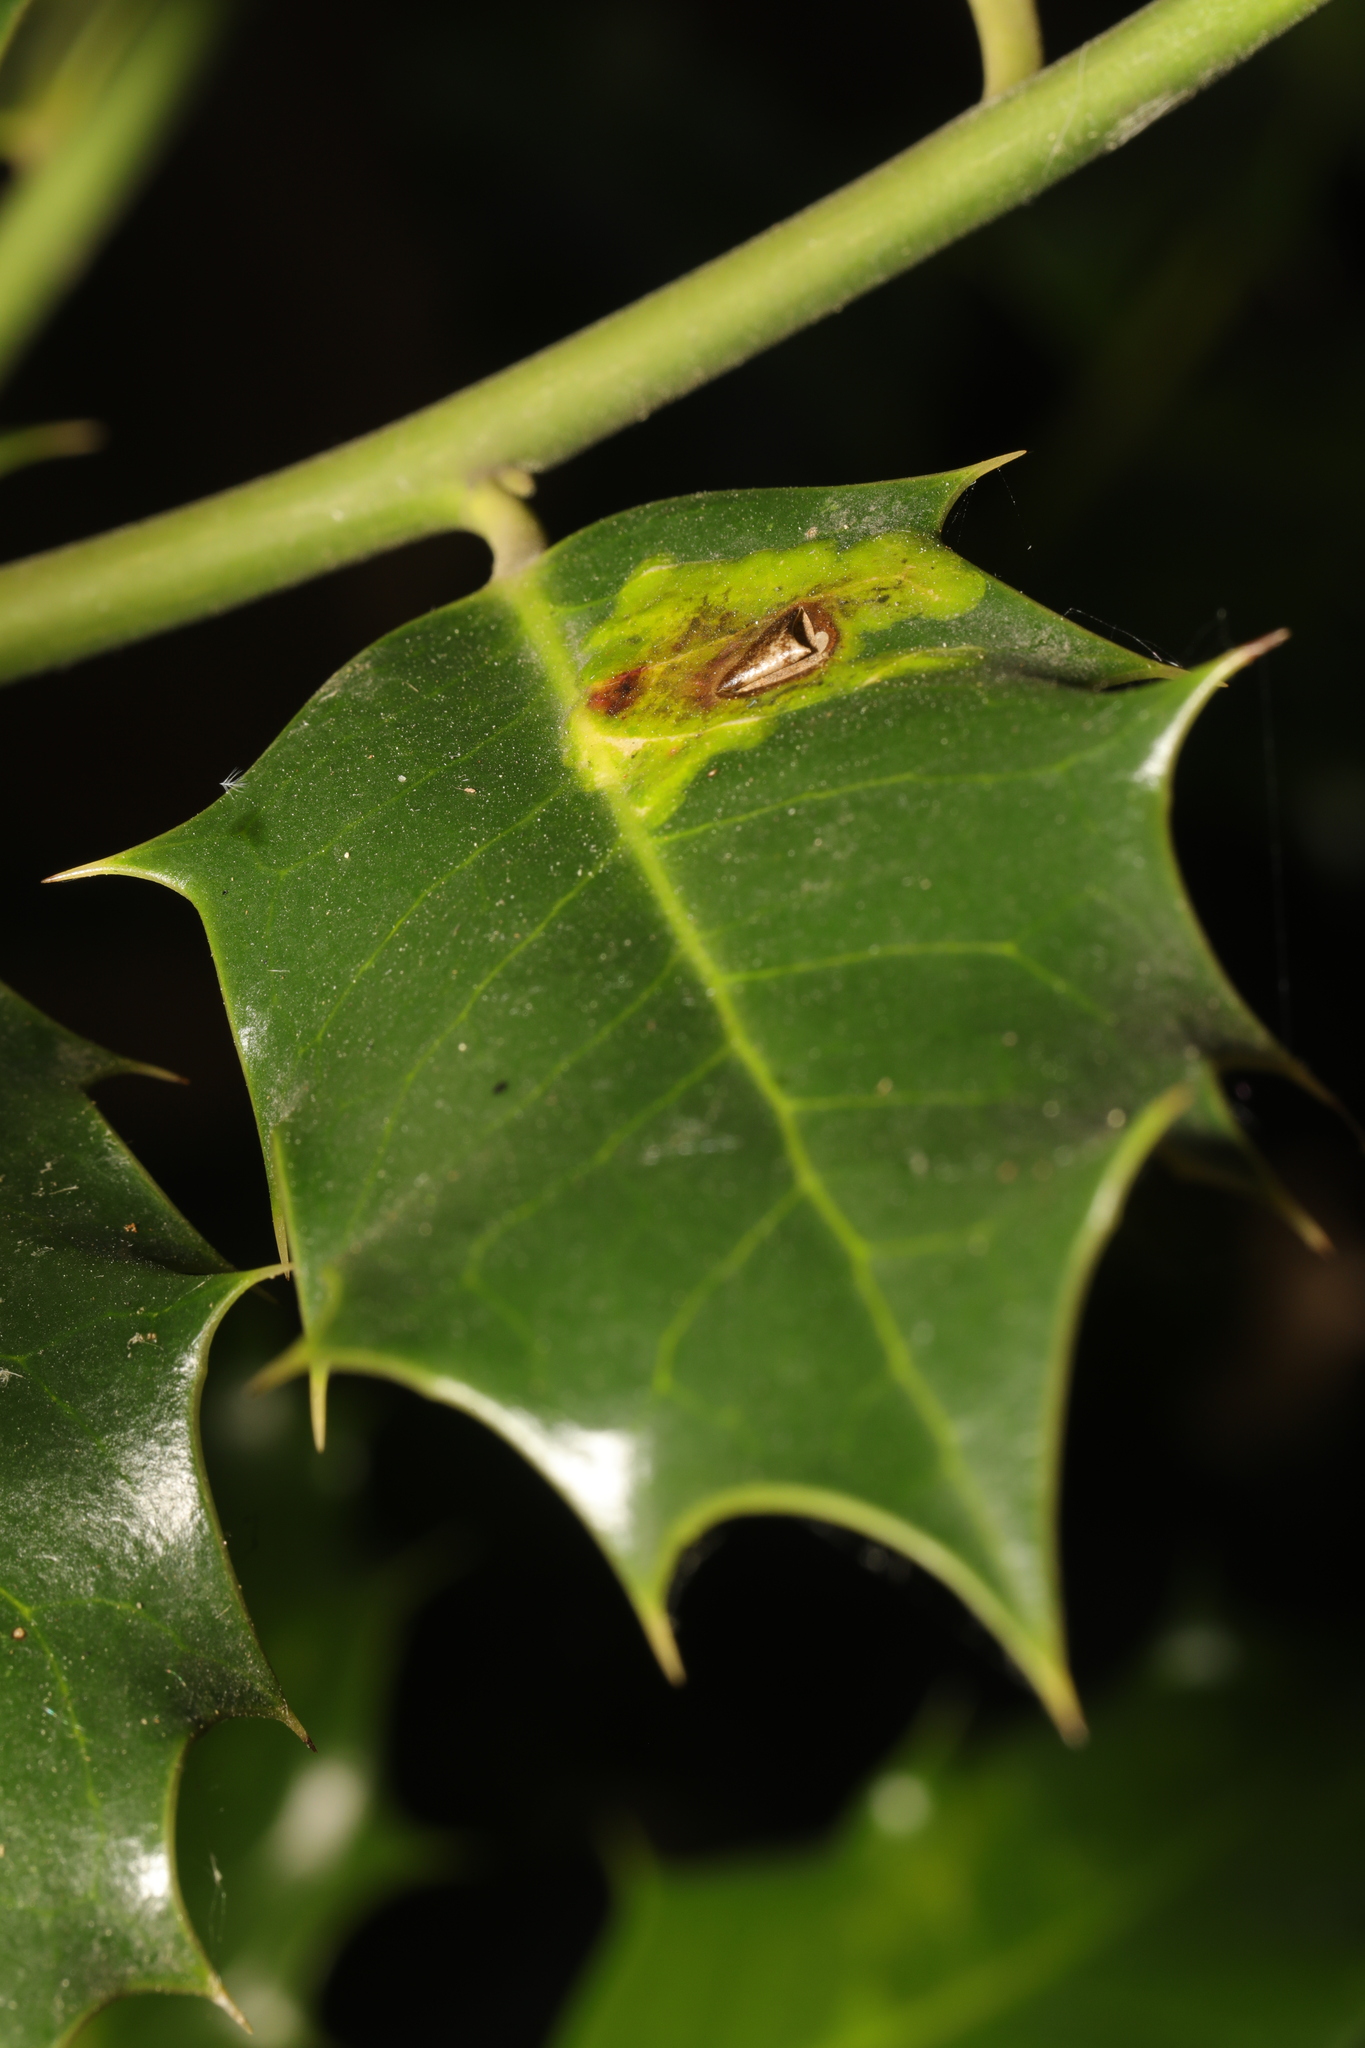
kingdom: Animalia
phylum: Arthropoda
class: Insecta
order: Diptera
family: Agromyzidae
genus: Phytomyza
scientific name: Phytomyza ilicis
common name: Holly leafminer
